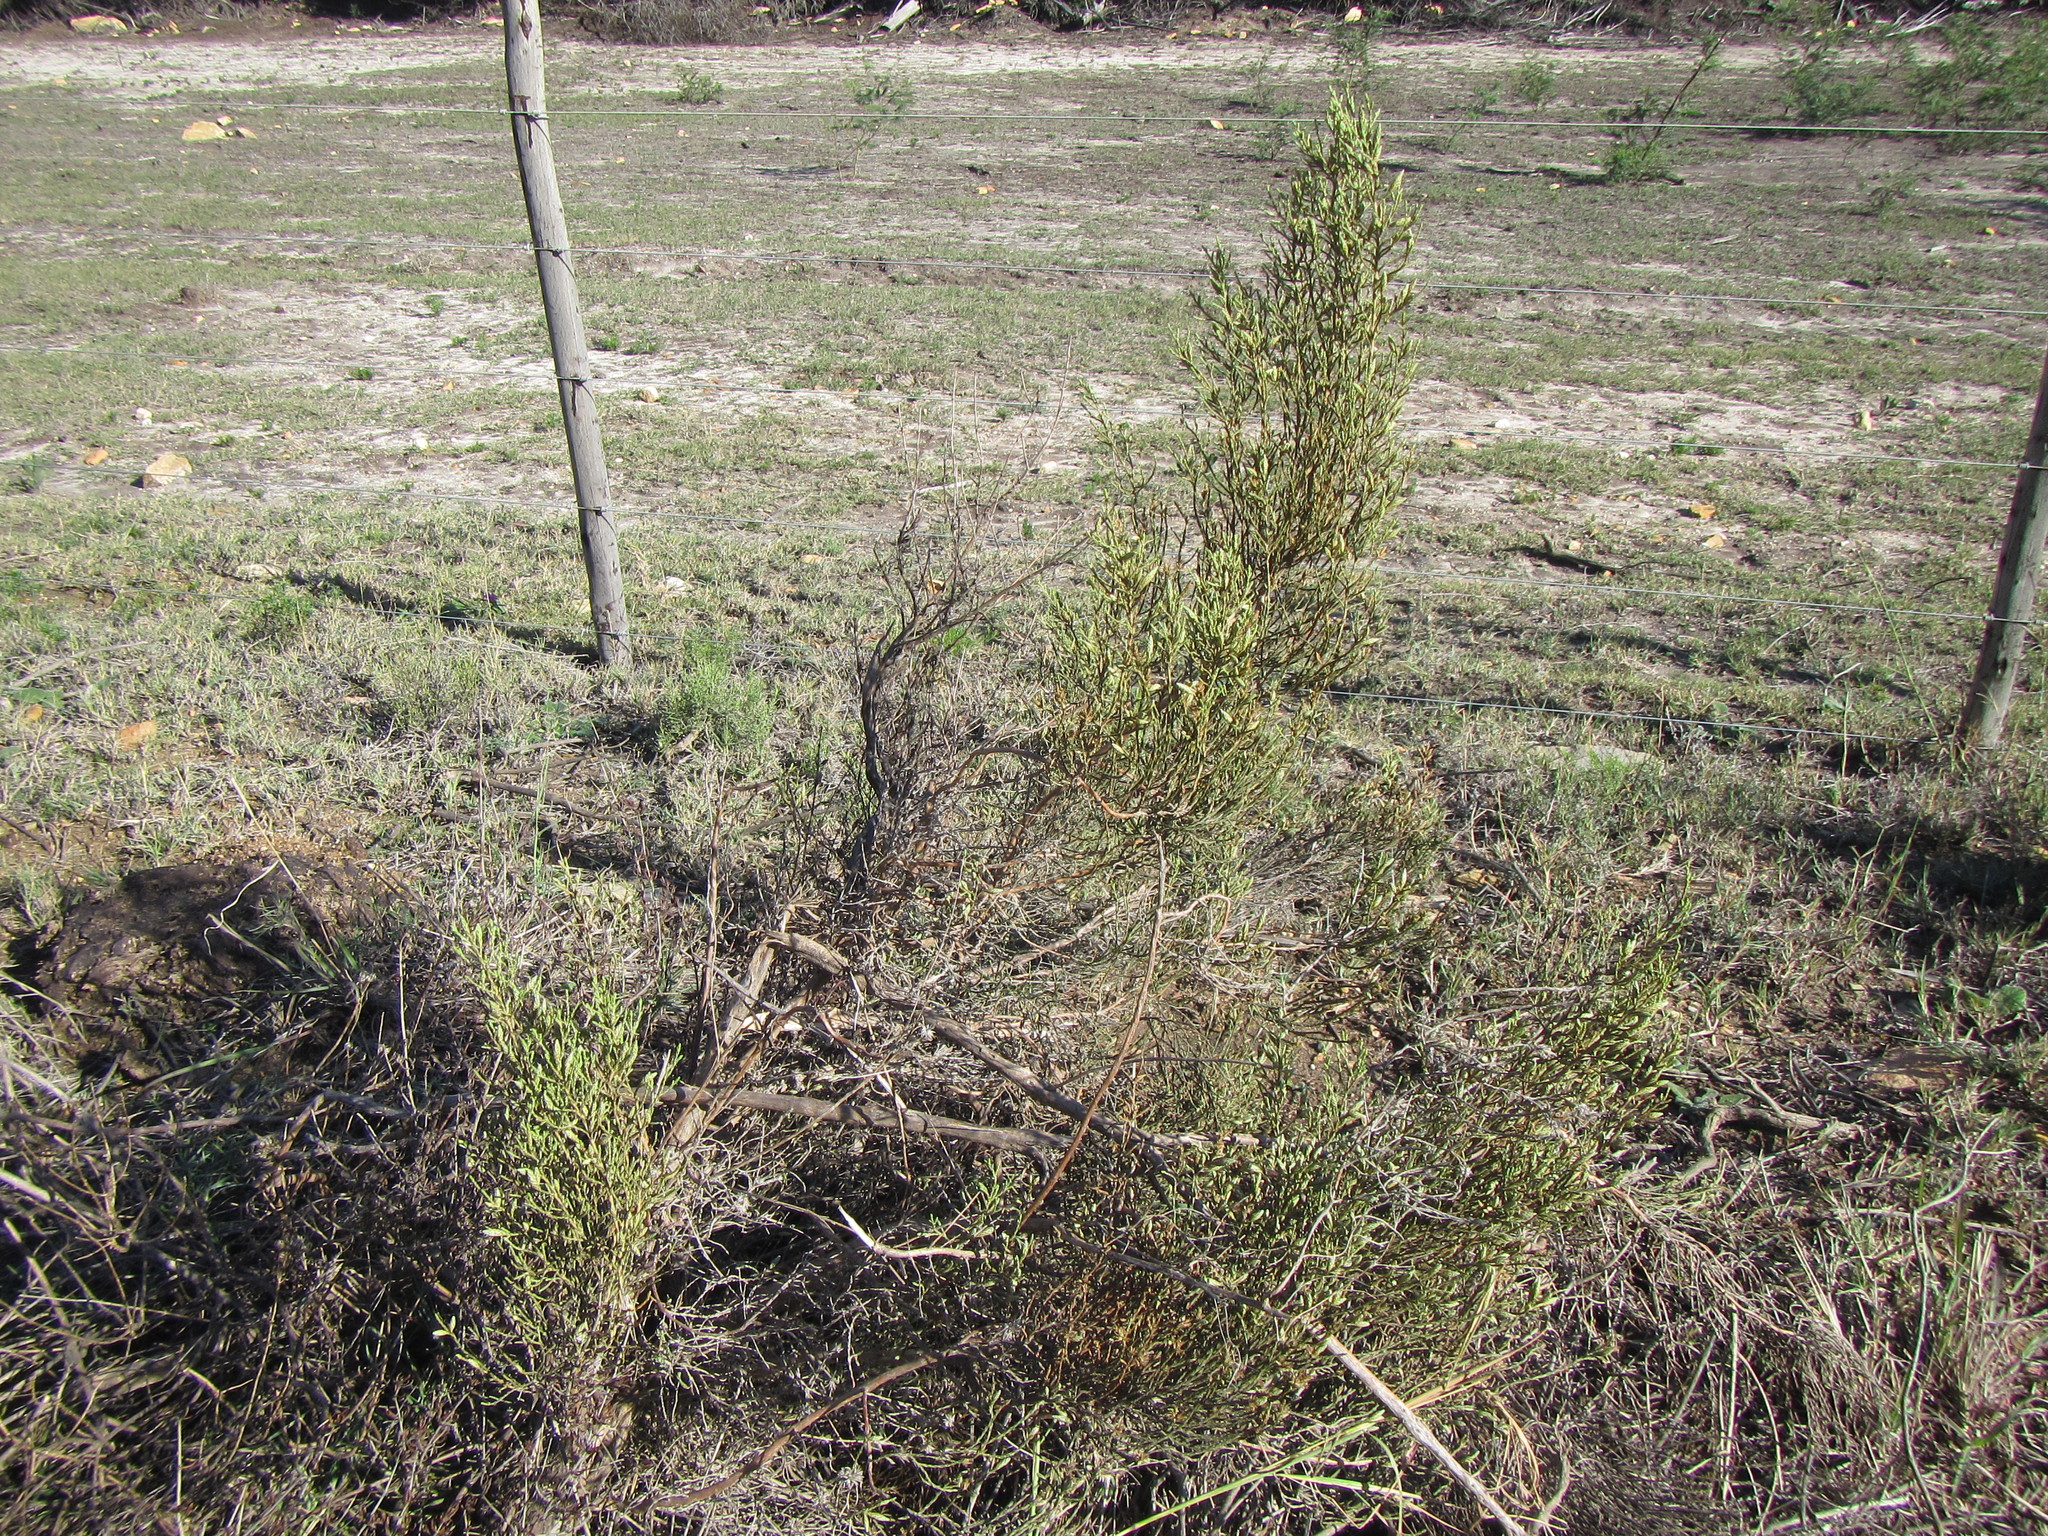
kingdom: Plantae
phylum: Tracheophyta
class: Magnoliopsida
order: Asterales
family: Asteraceae
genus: Dicerothamnus
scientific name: Dicerothamnus adpressus
